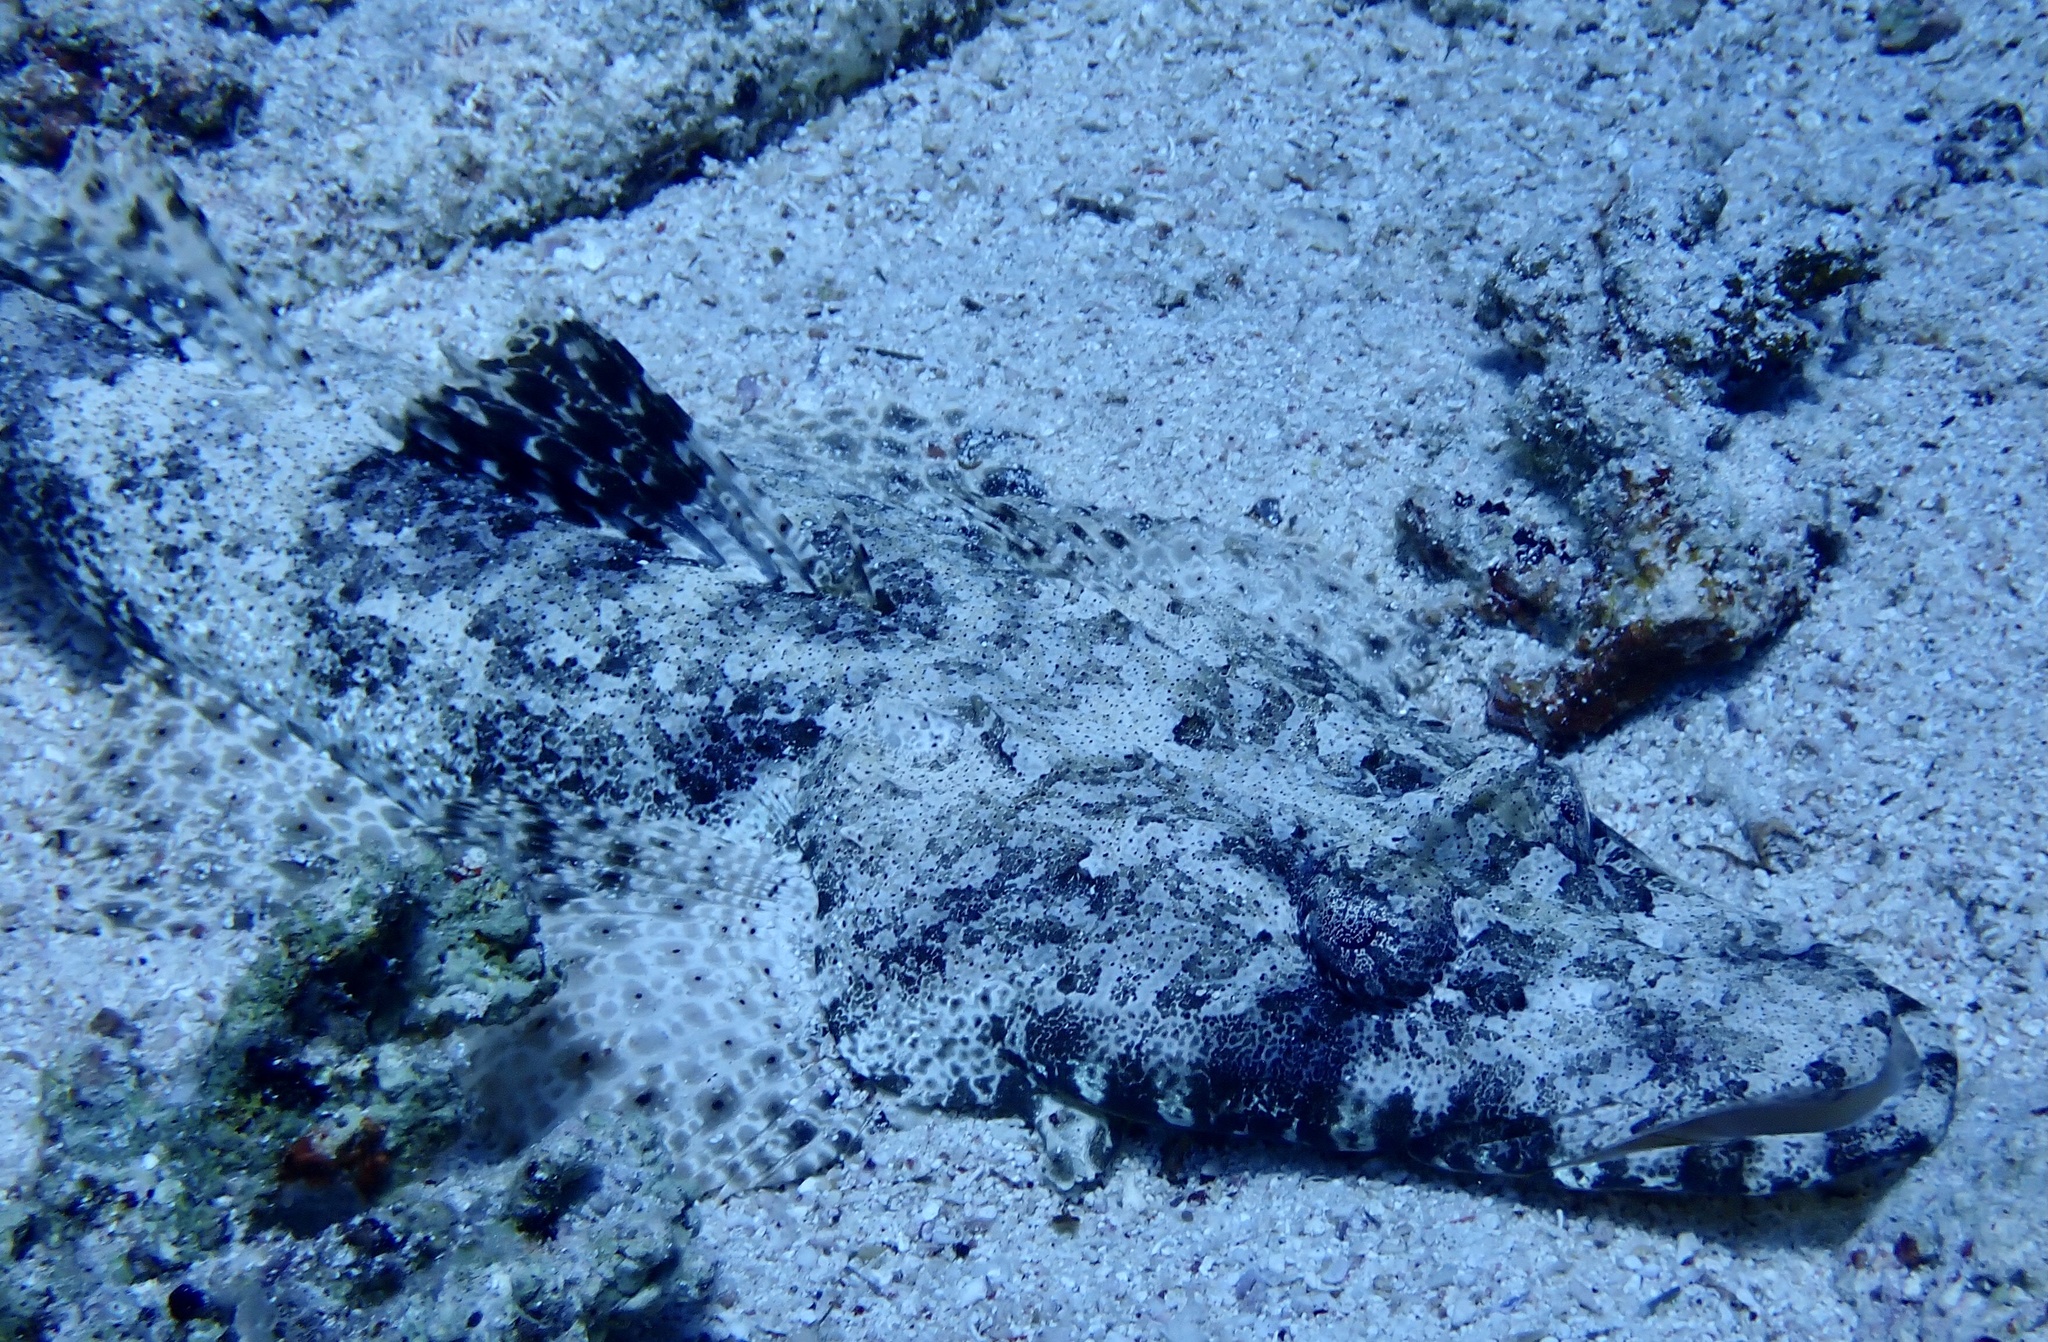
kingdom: Animalia
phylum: Chordata
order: Scorpaeniformes
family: Platycephalidae
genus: Papilloculiceps
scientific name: Papilloculiceps longiceps
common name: Tentacled flathead
